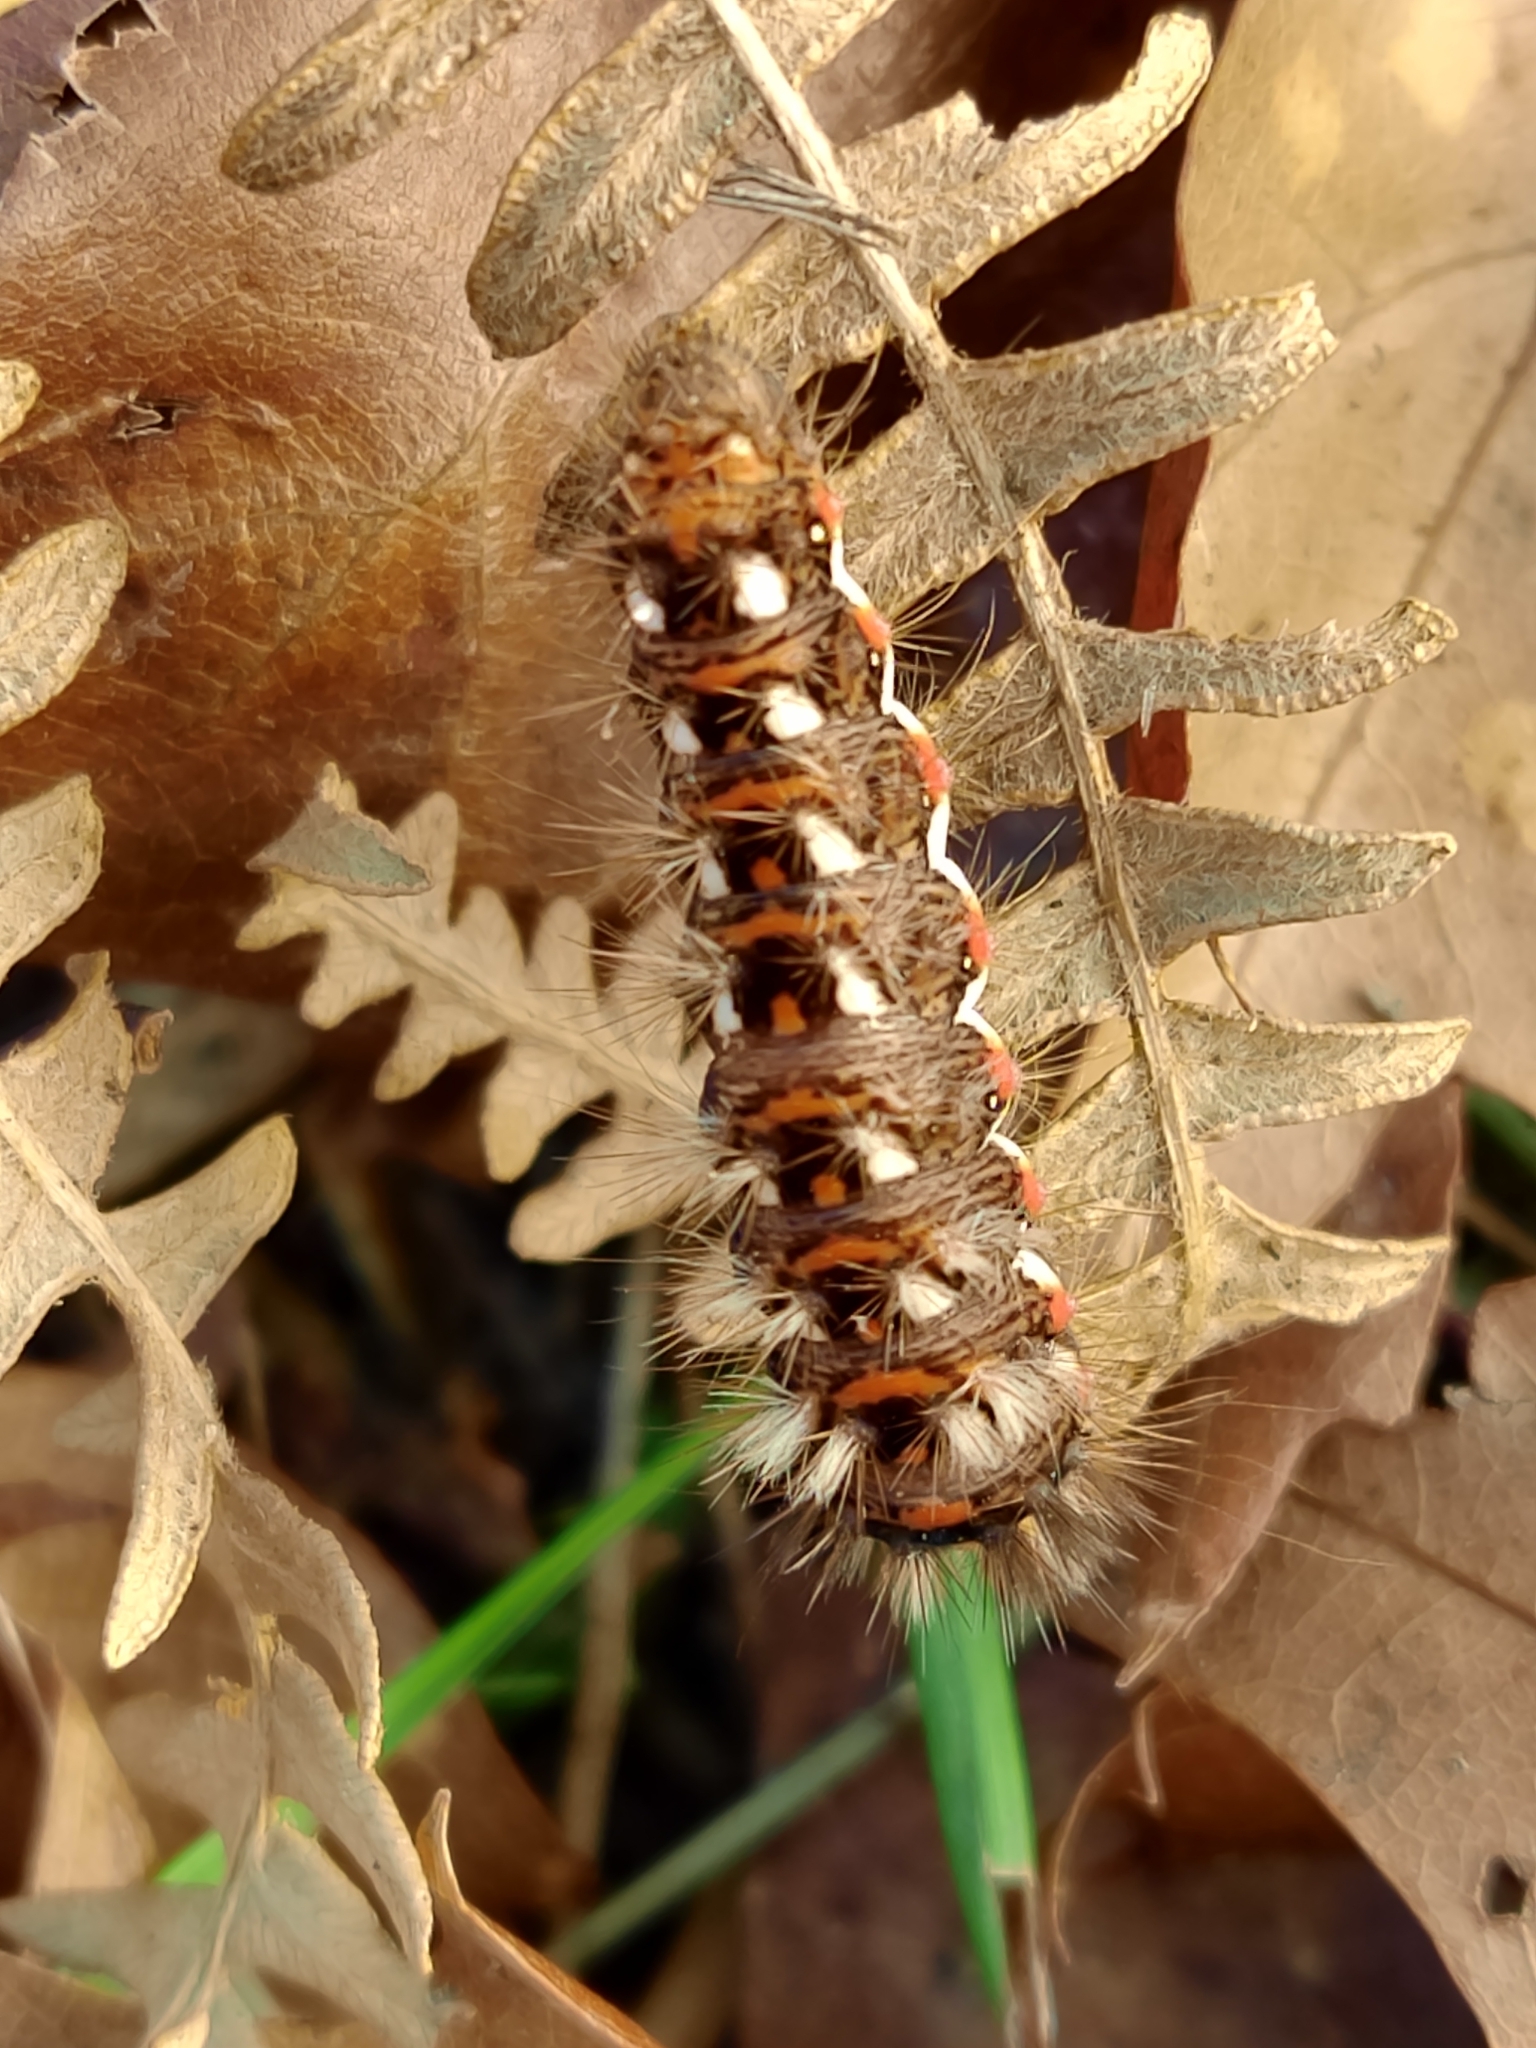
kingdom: Animalia
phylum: Arthropoda
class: Insecta
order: Lepidoptera
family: Noctuidae
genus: Acronicta
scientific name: Acronicta rumicis
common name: Knot grass
